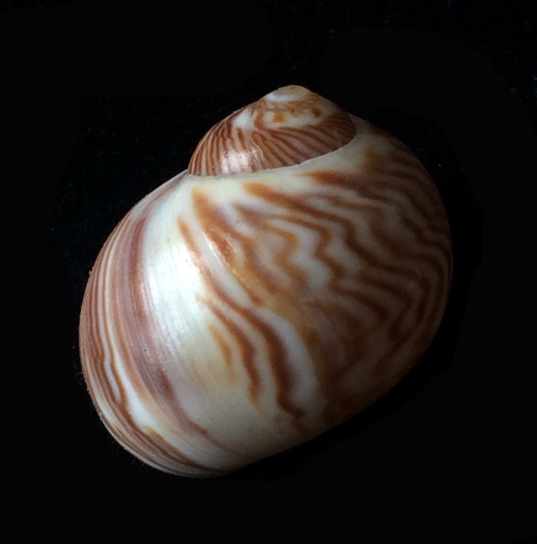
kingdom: Animalia
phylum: Mollusca
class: Gastropoda
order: Littorinimorpha
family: Naticidae
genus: Tectonatica
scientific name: Tectonatica sagraiana
